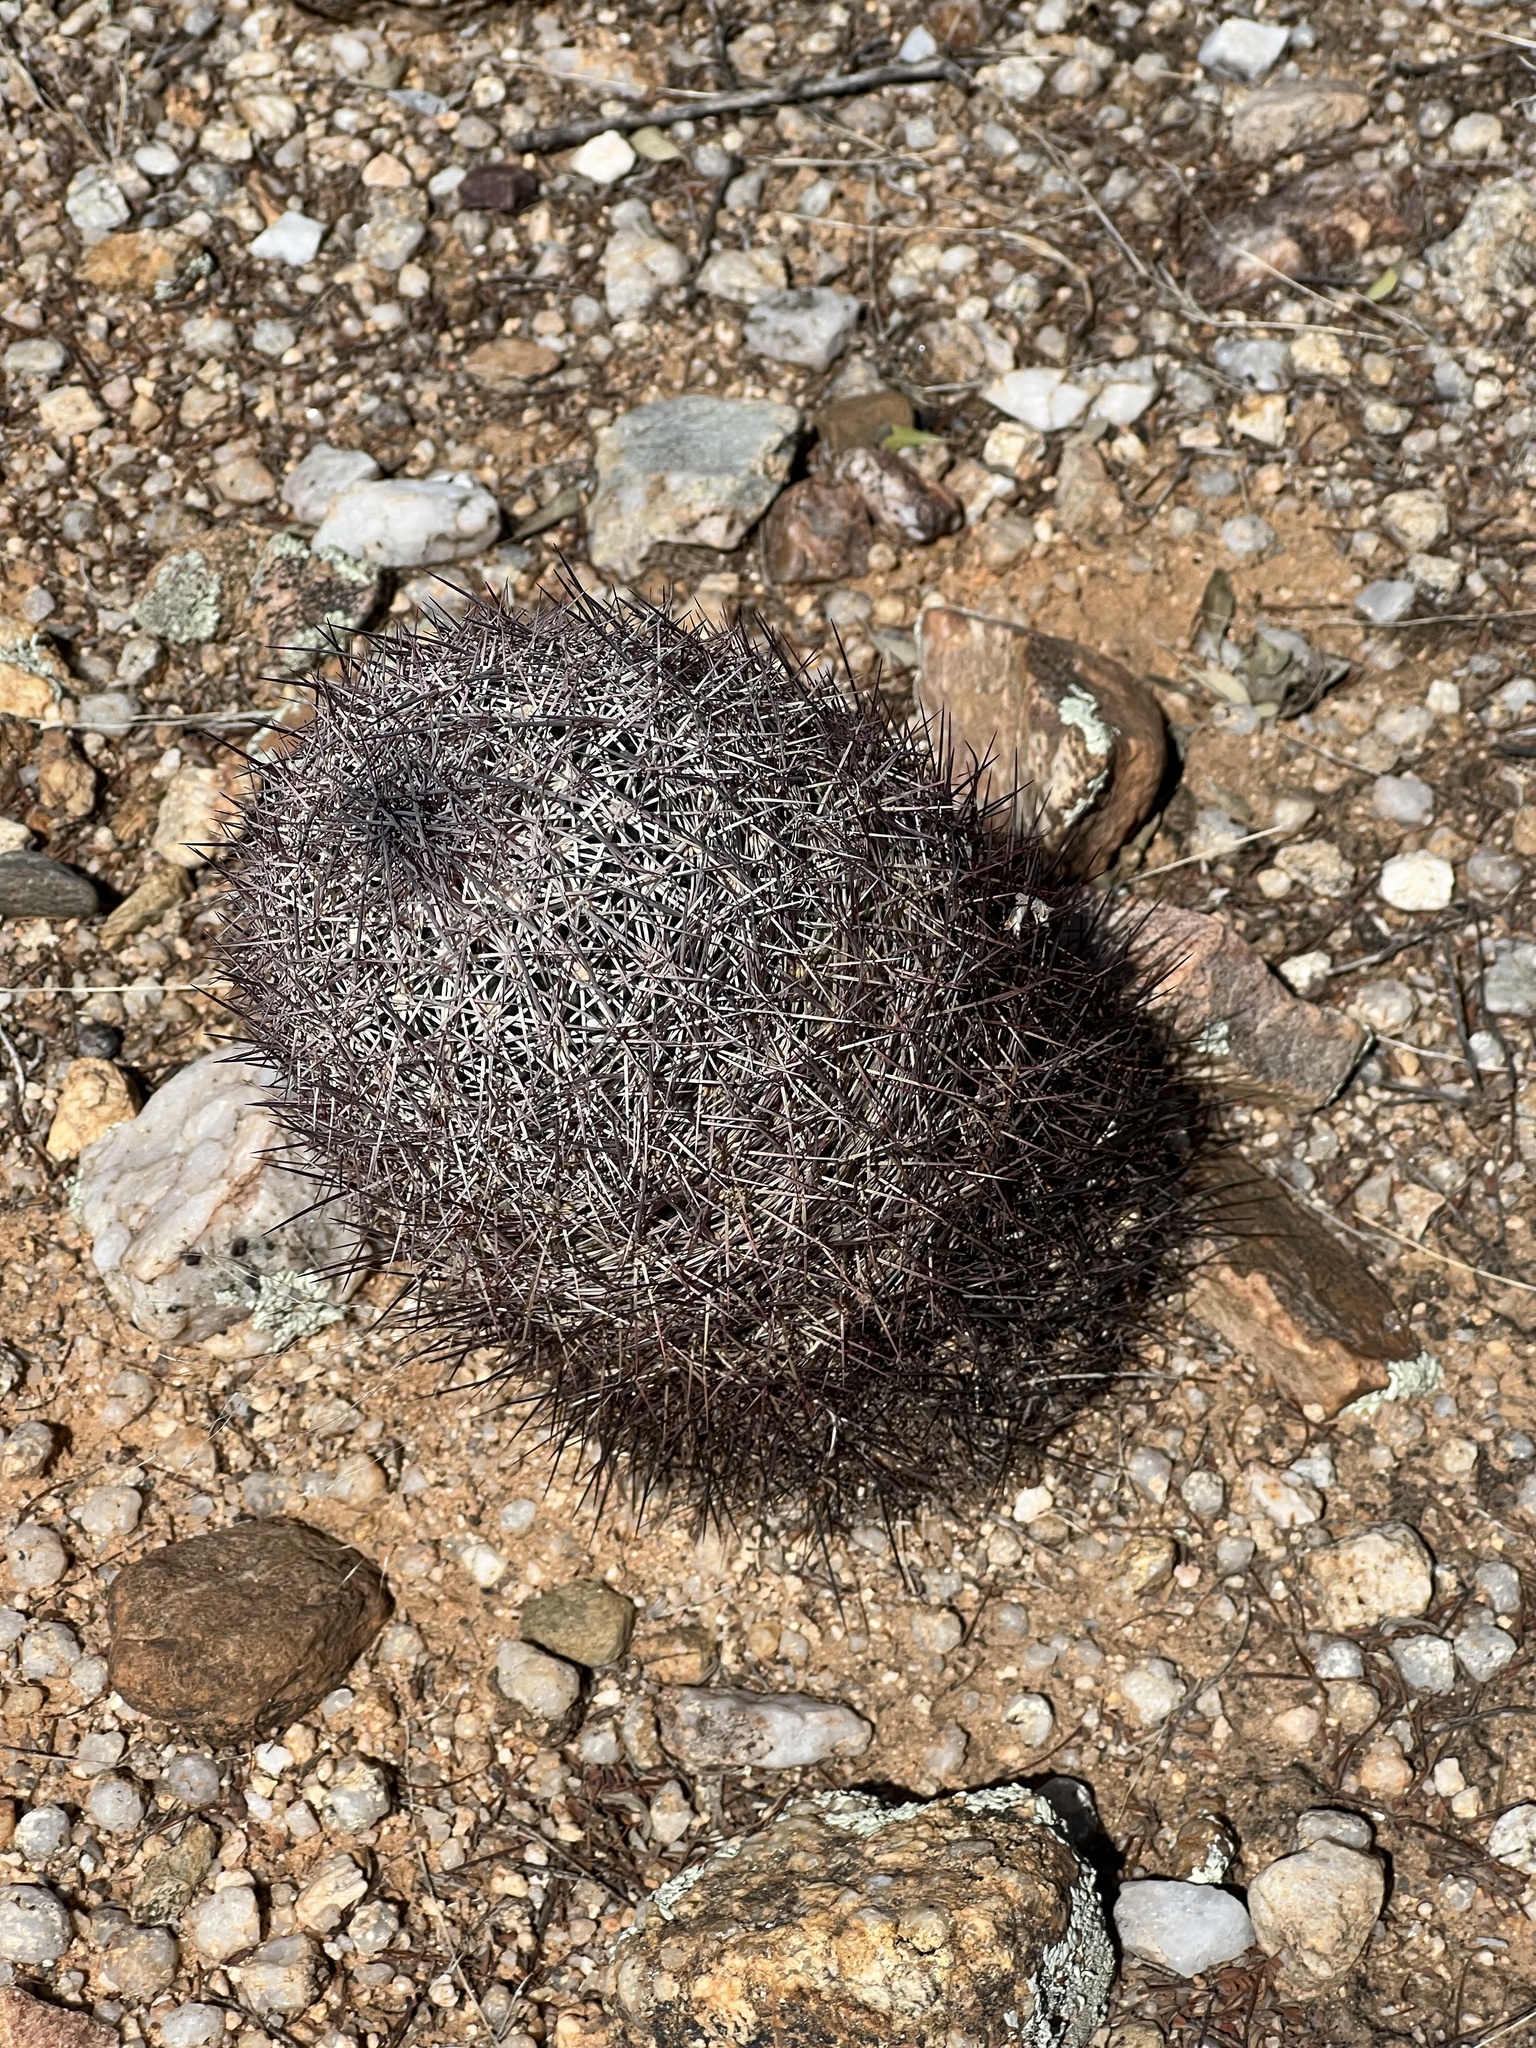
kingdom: Plantae
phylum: Tracheophyta
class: Magnoliopsida
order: Caryophyllales
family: Cactaceae
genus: Sclerocactus
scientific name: Sclerocactus johnsonii
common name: Eight-spine fishhook cactus
